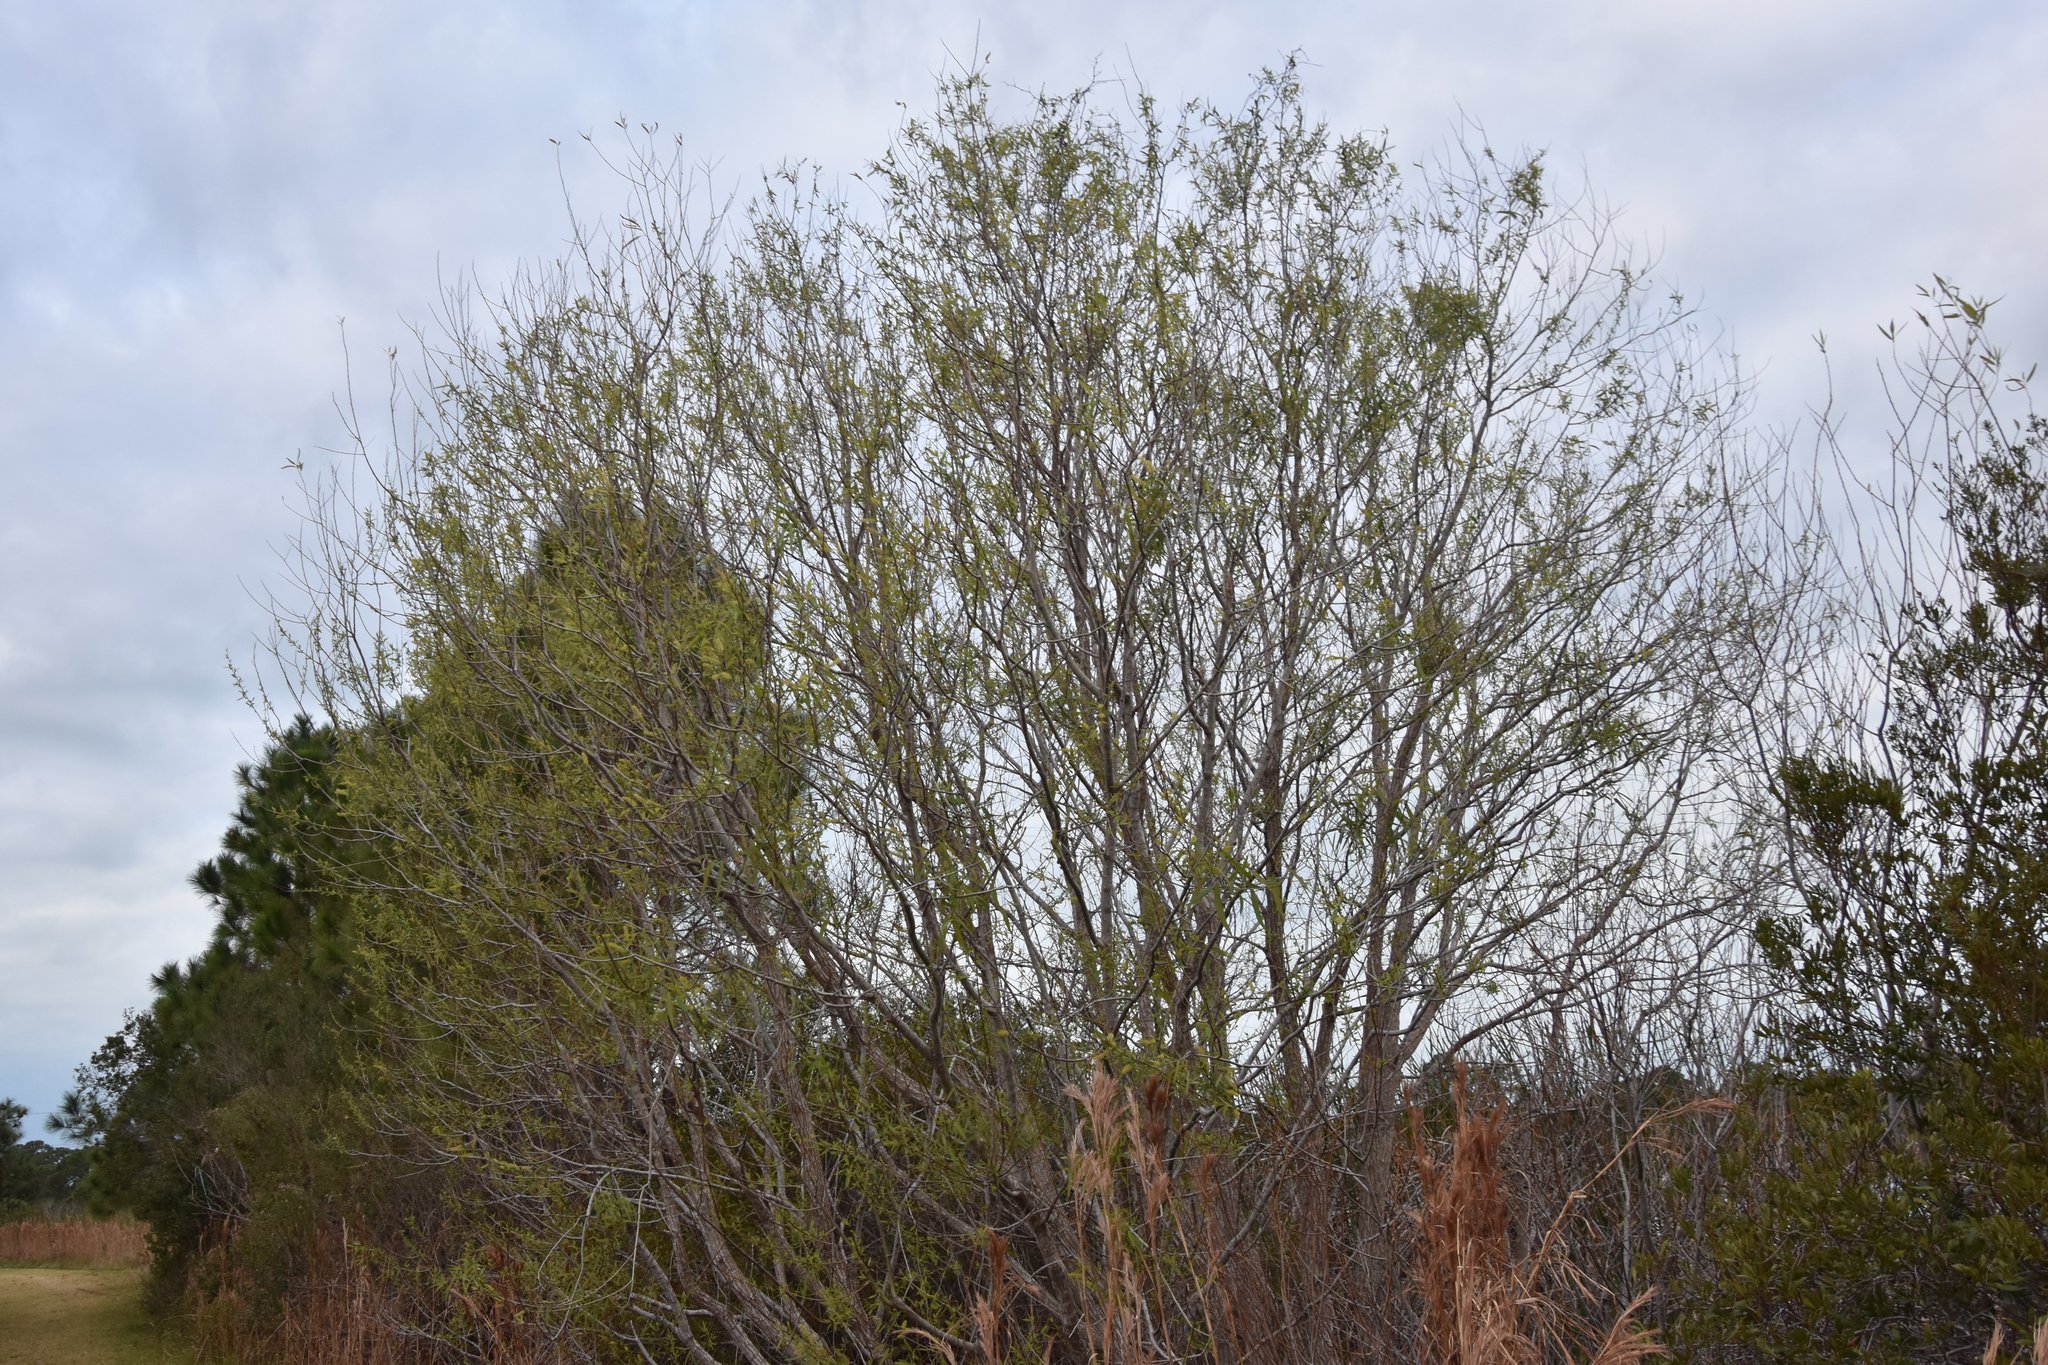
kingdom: Plantae
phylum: Tracheophyta
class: Magnoliopsida
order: Malpighiales
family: Salicaceae
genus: Salix
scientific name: Salix caroliniana
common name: Carolina willow
